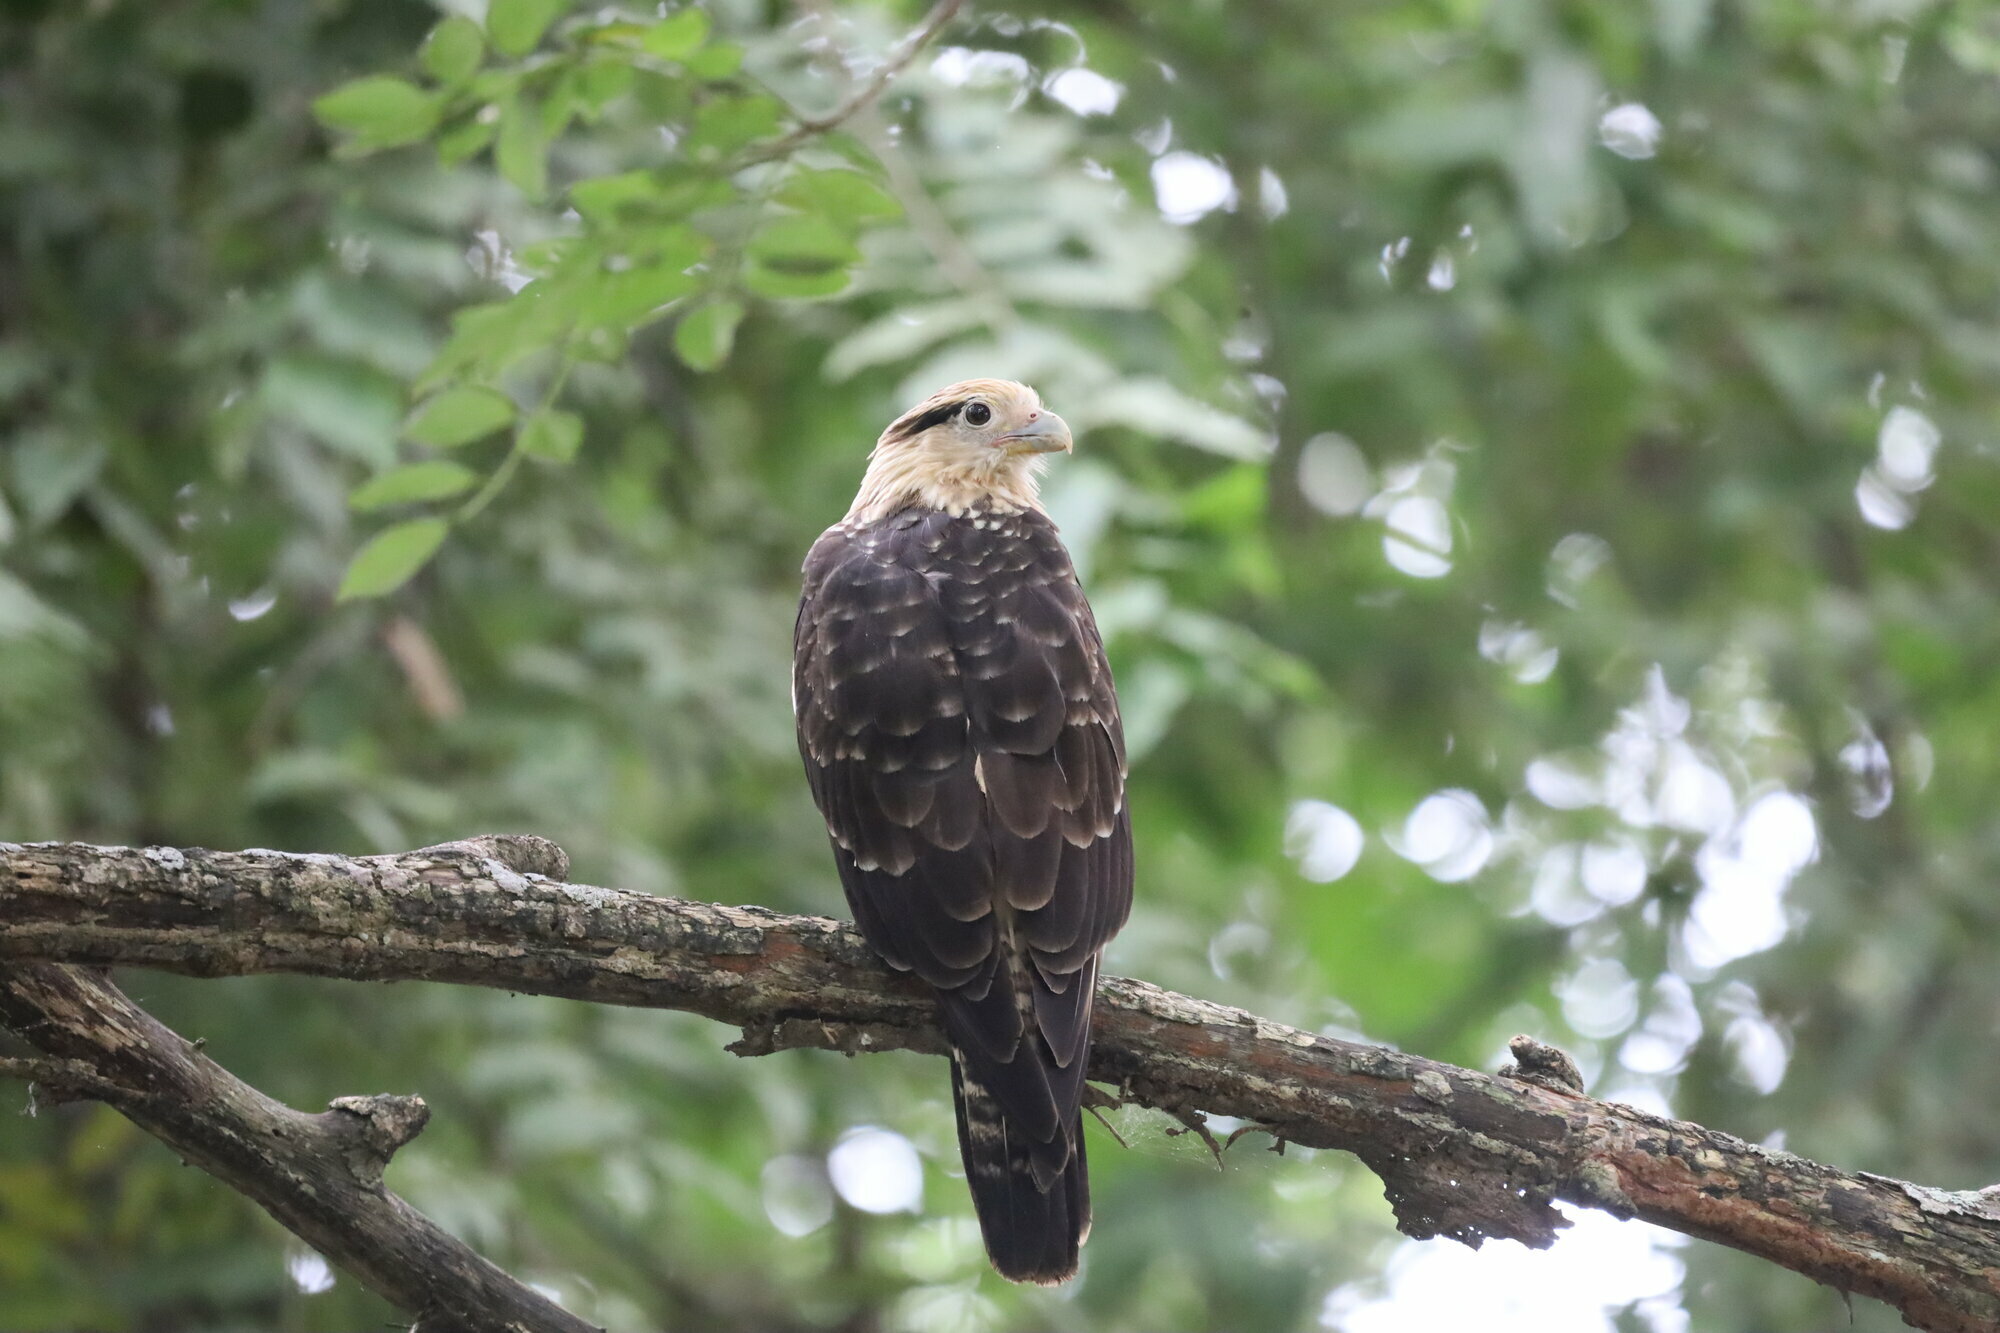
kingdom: Animalia
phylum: Chordata
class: Aves
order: Falconiformes
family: Falconidae
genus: Daptrius
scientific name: Daptrius
